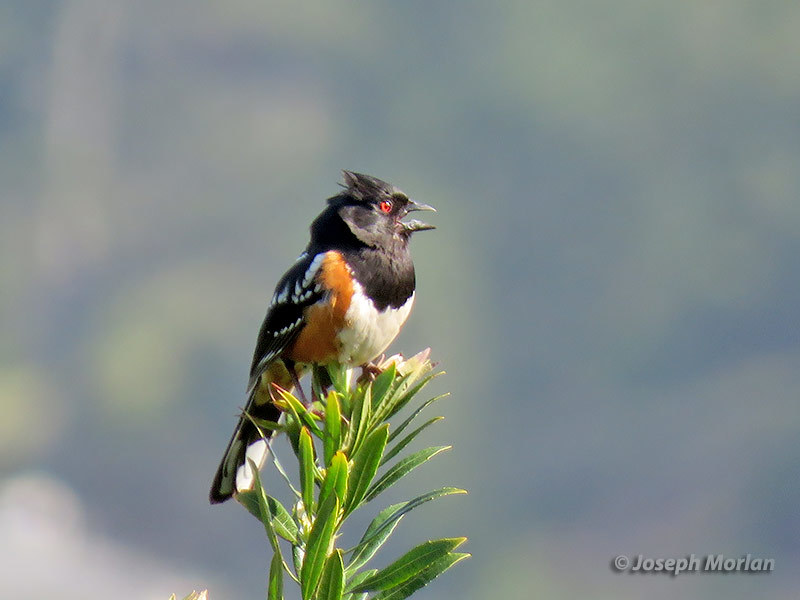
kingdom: Animalia
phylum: Chordata
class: Aves
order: Passeriformes
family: Passerellidae
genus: Pipilo
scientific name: Pipilo maculatus
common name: Spotted towhee
